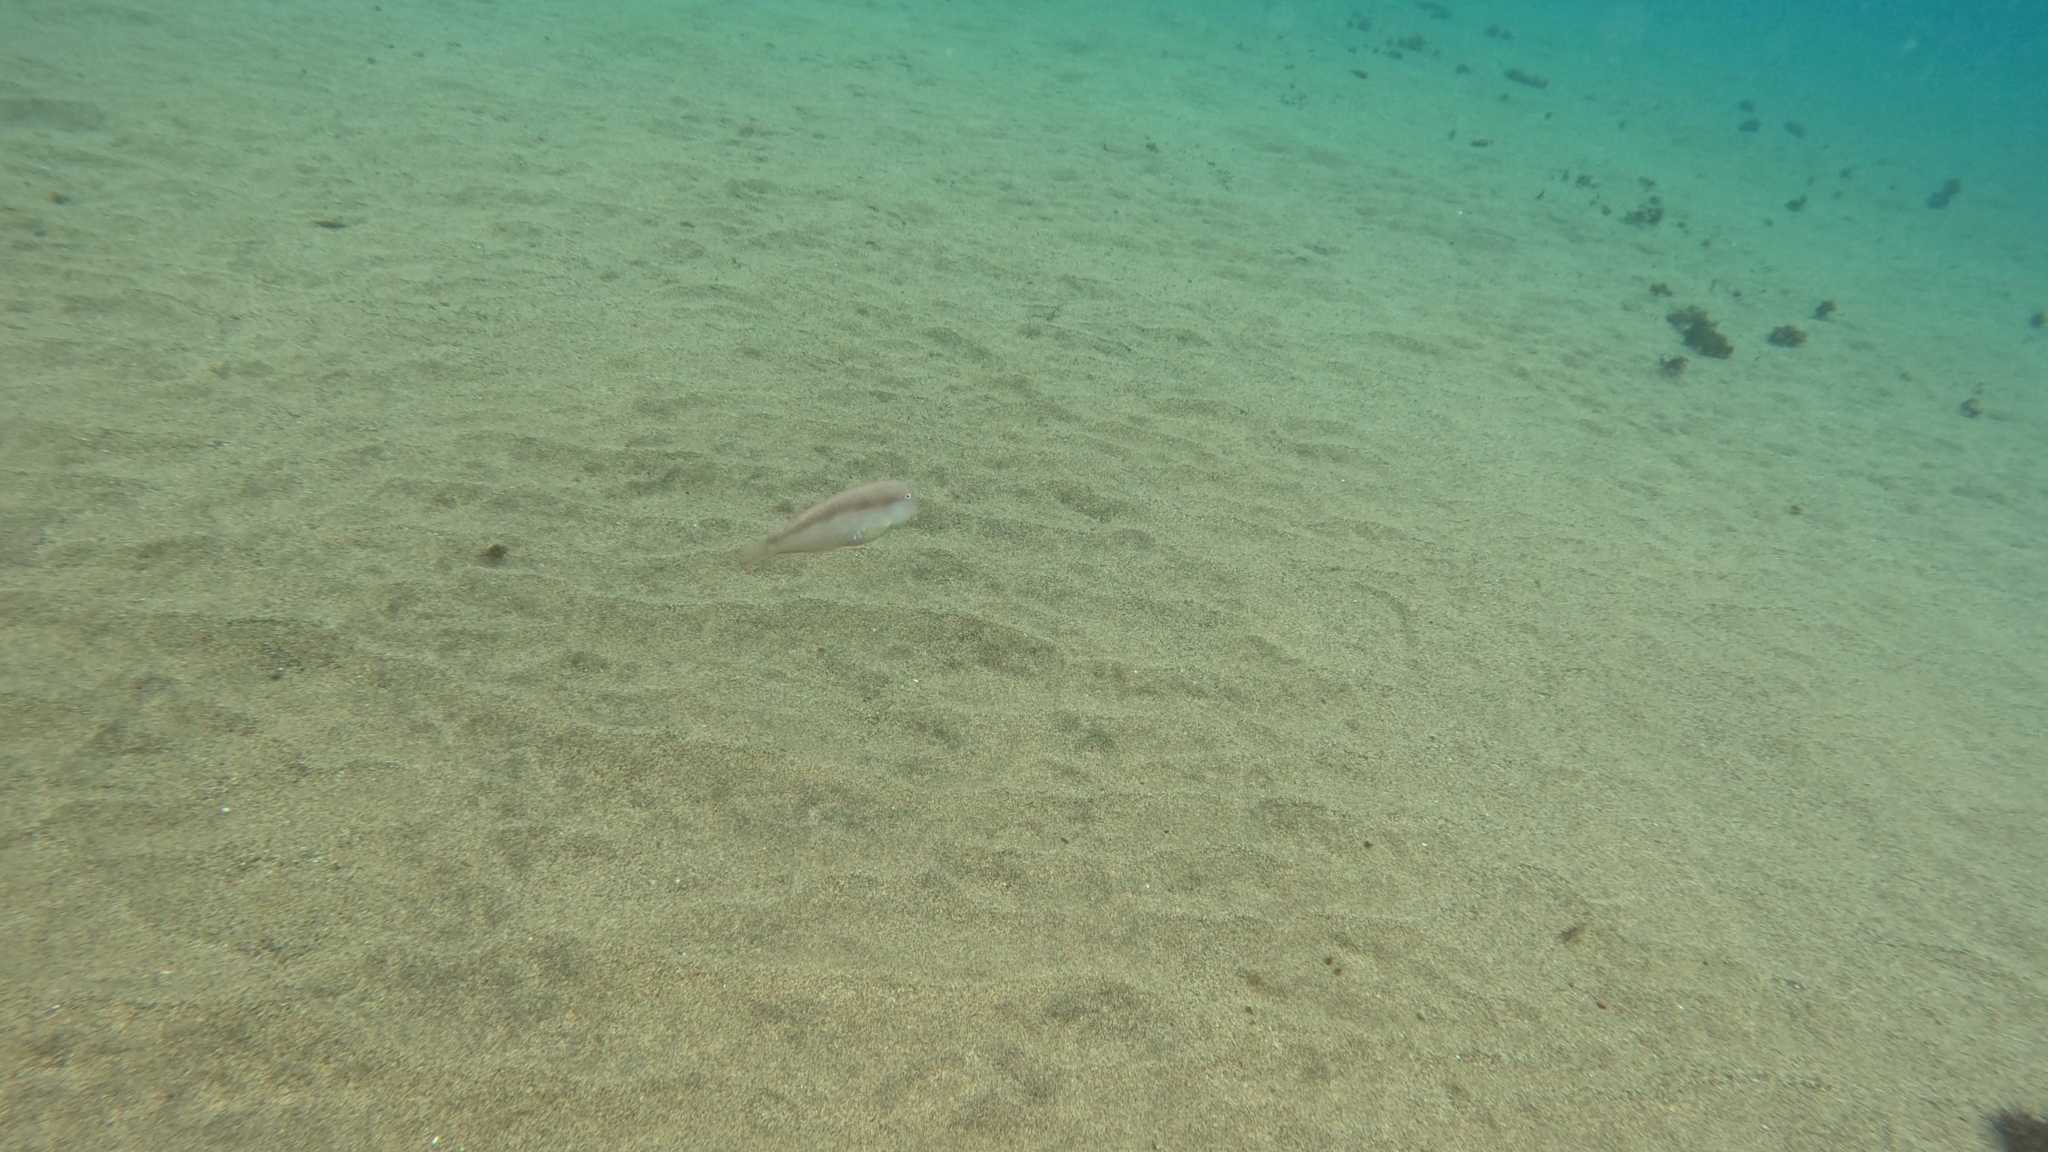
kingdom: Animalia
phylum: Chordata
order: Perciformes
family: Labridae
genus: Xyrichtys
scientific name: Xyrichtys novacula
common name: Pearly razorfish
